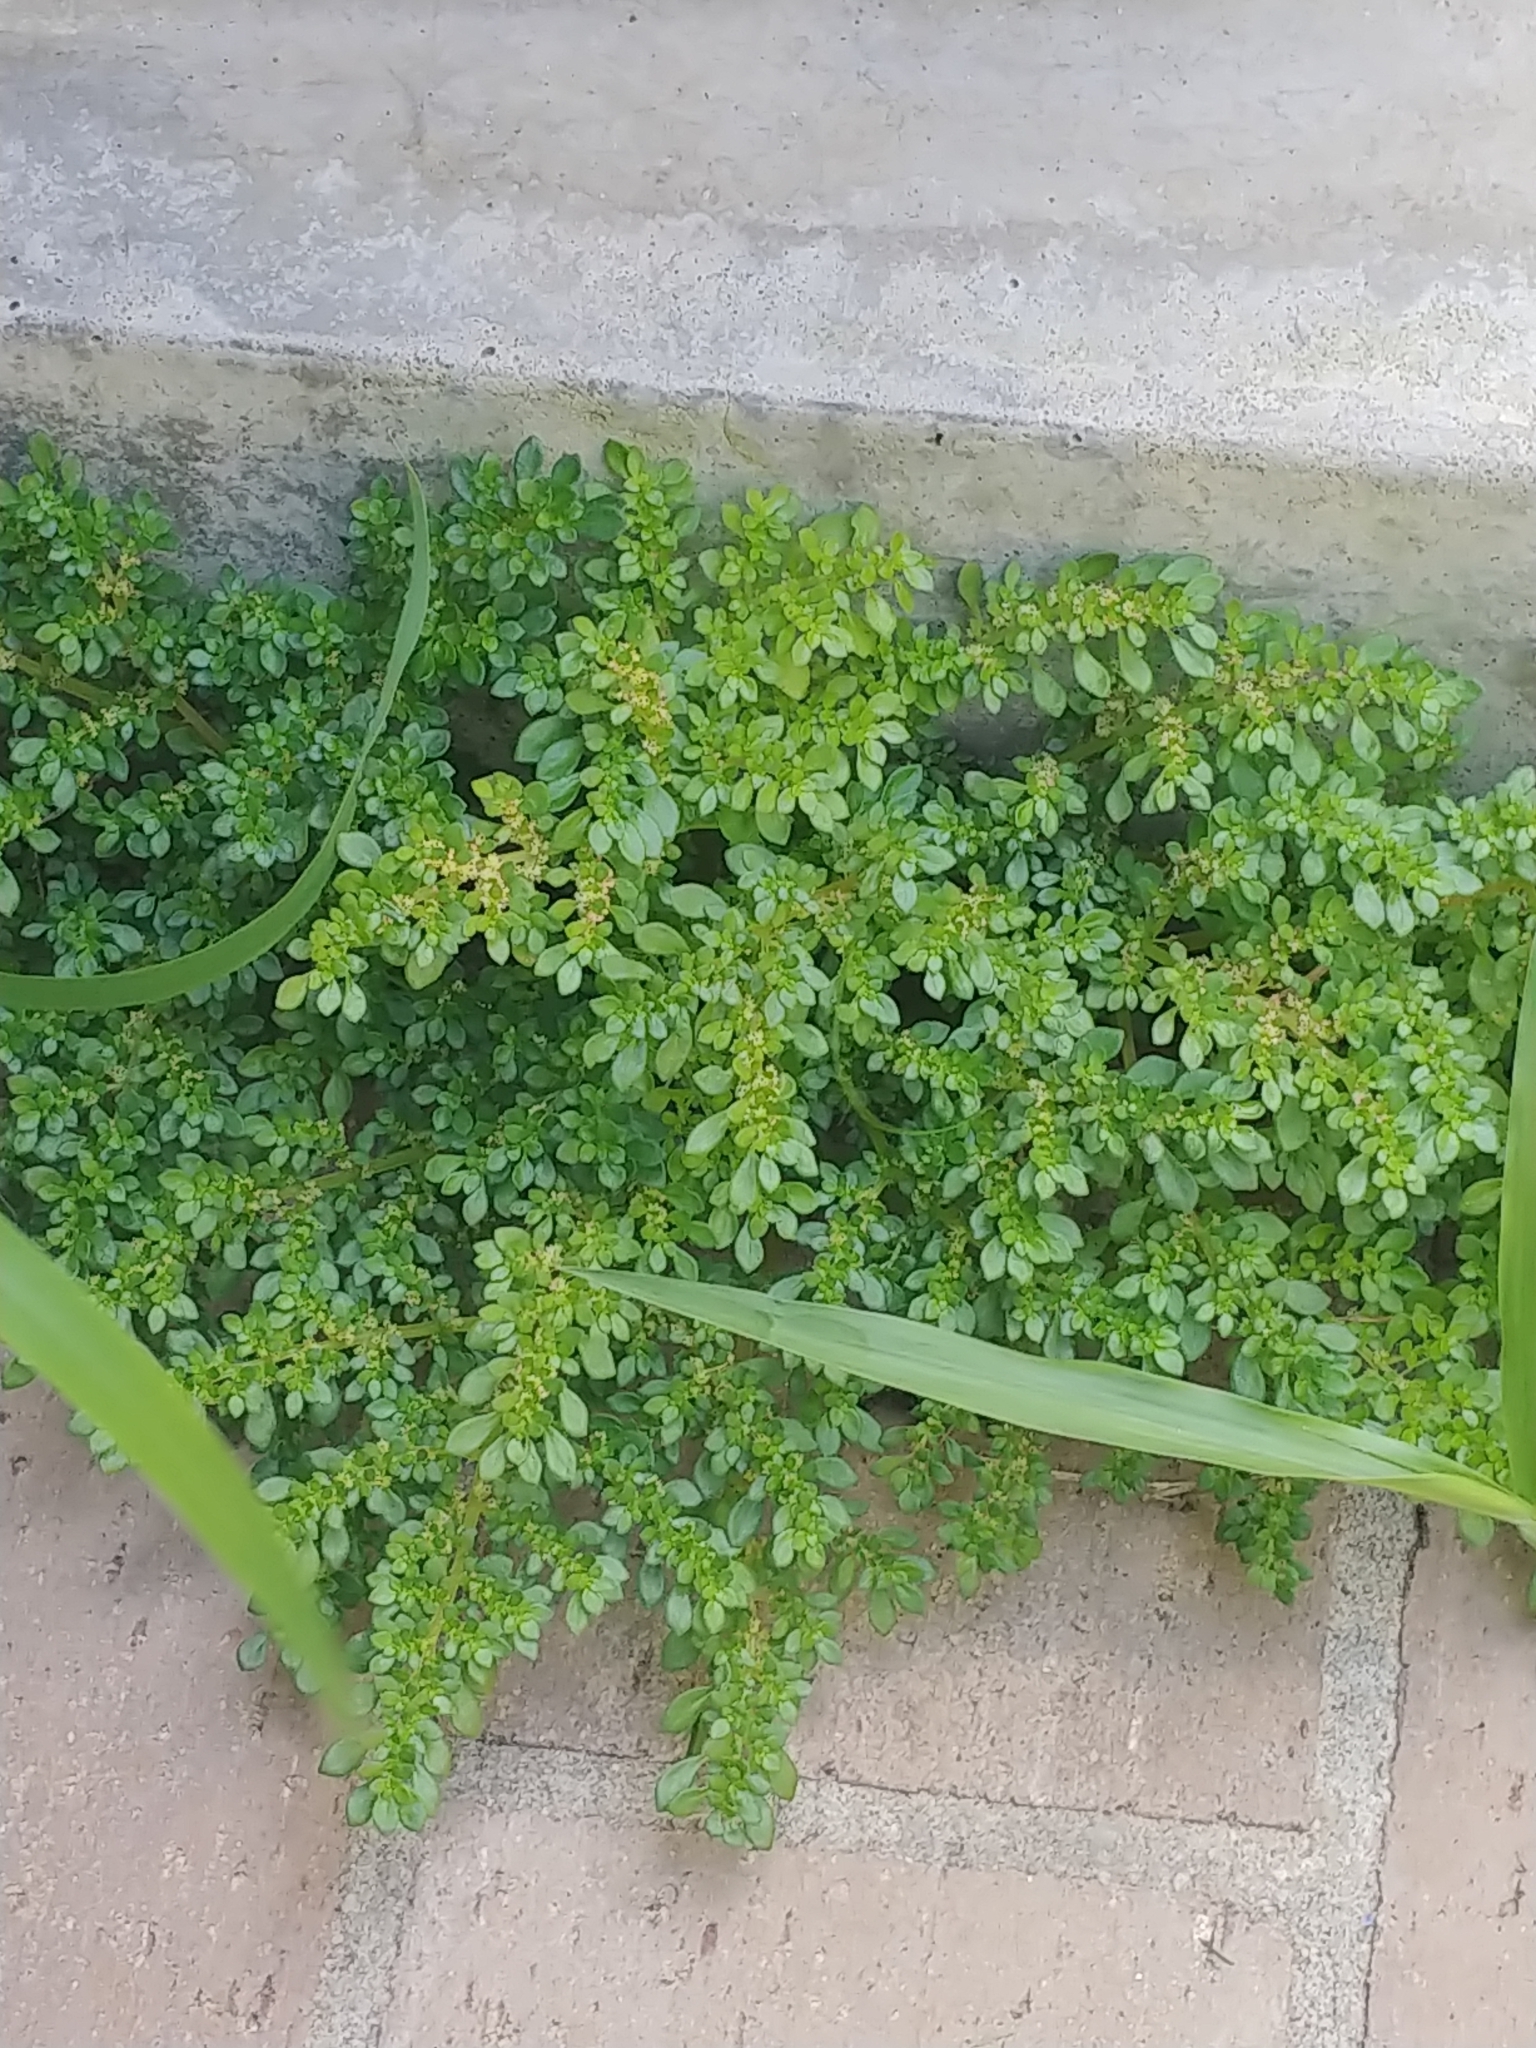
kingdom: Plantae
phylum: Tracheophyta
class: Magnoliopsida
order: Rosales
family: Urticaceae
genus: Pilea
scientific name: Pilea microphylla
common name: Artillery-plant
